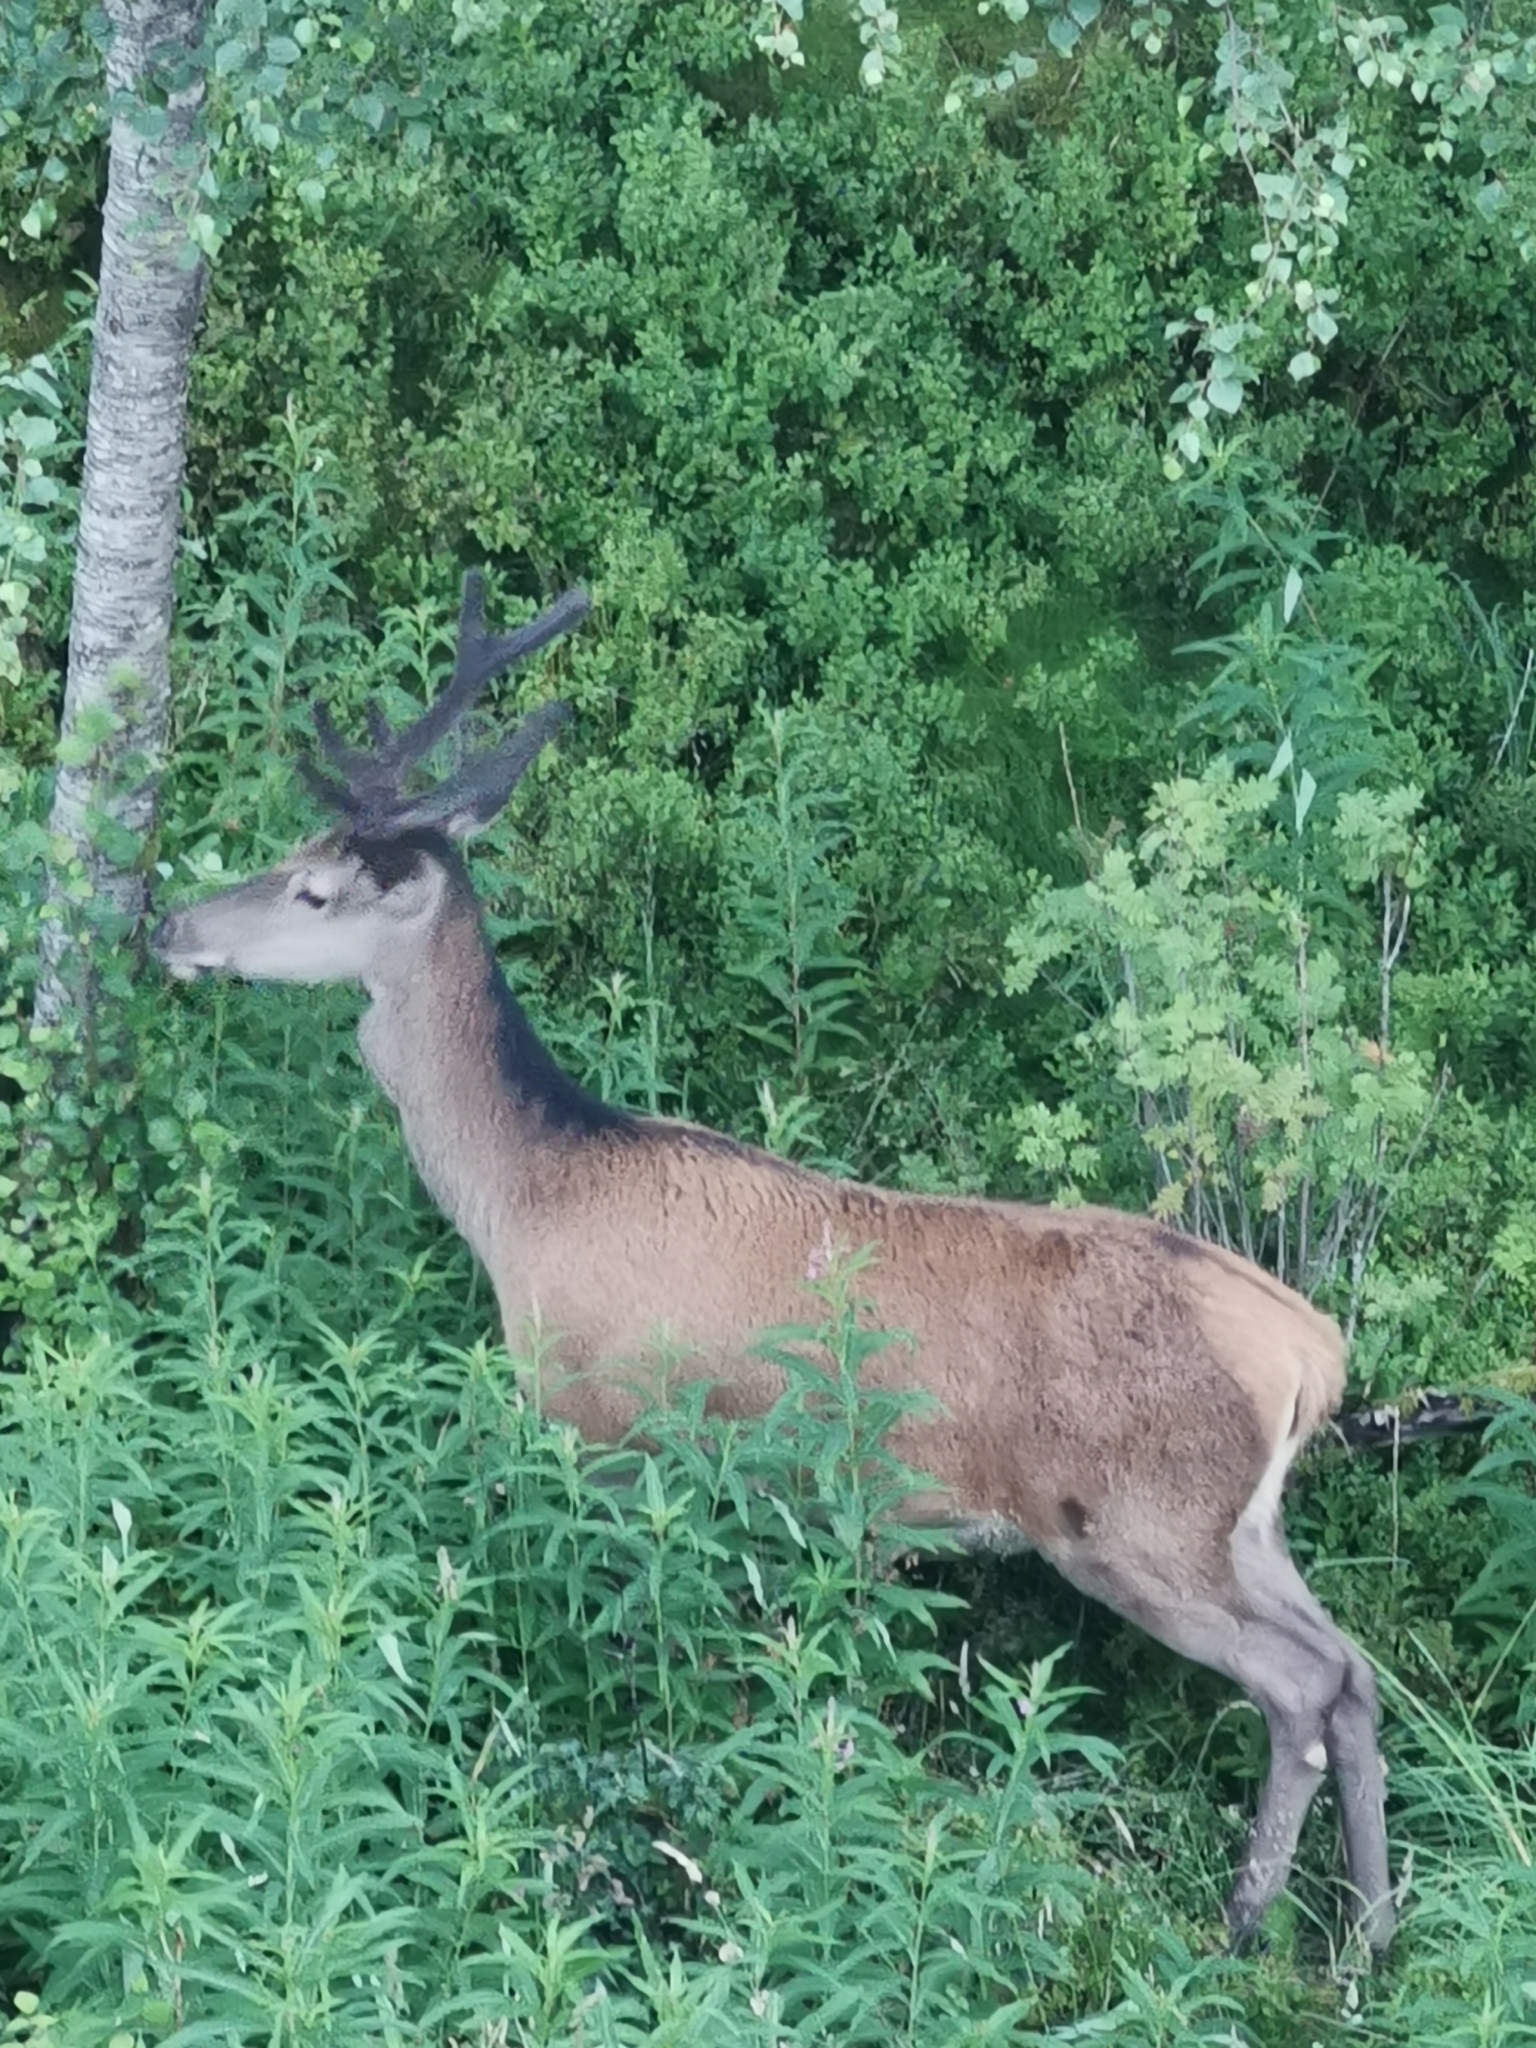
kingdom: Animalia
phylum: Chordata
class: Mammalia
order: Artiodactyla
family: Cervidae
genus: Cervus
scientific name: Cervus elaphus
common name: Red deer
